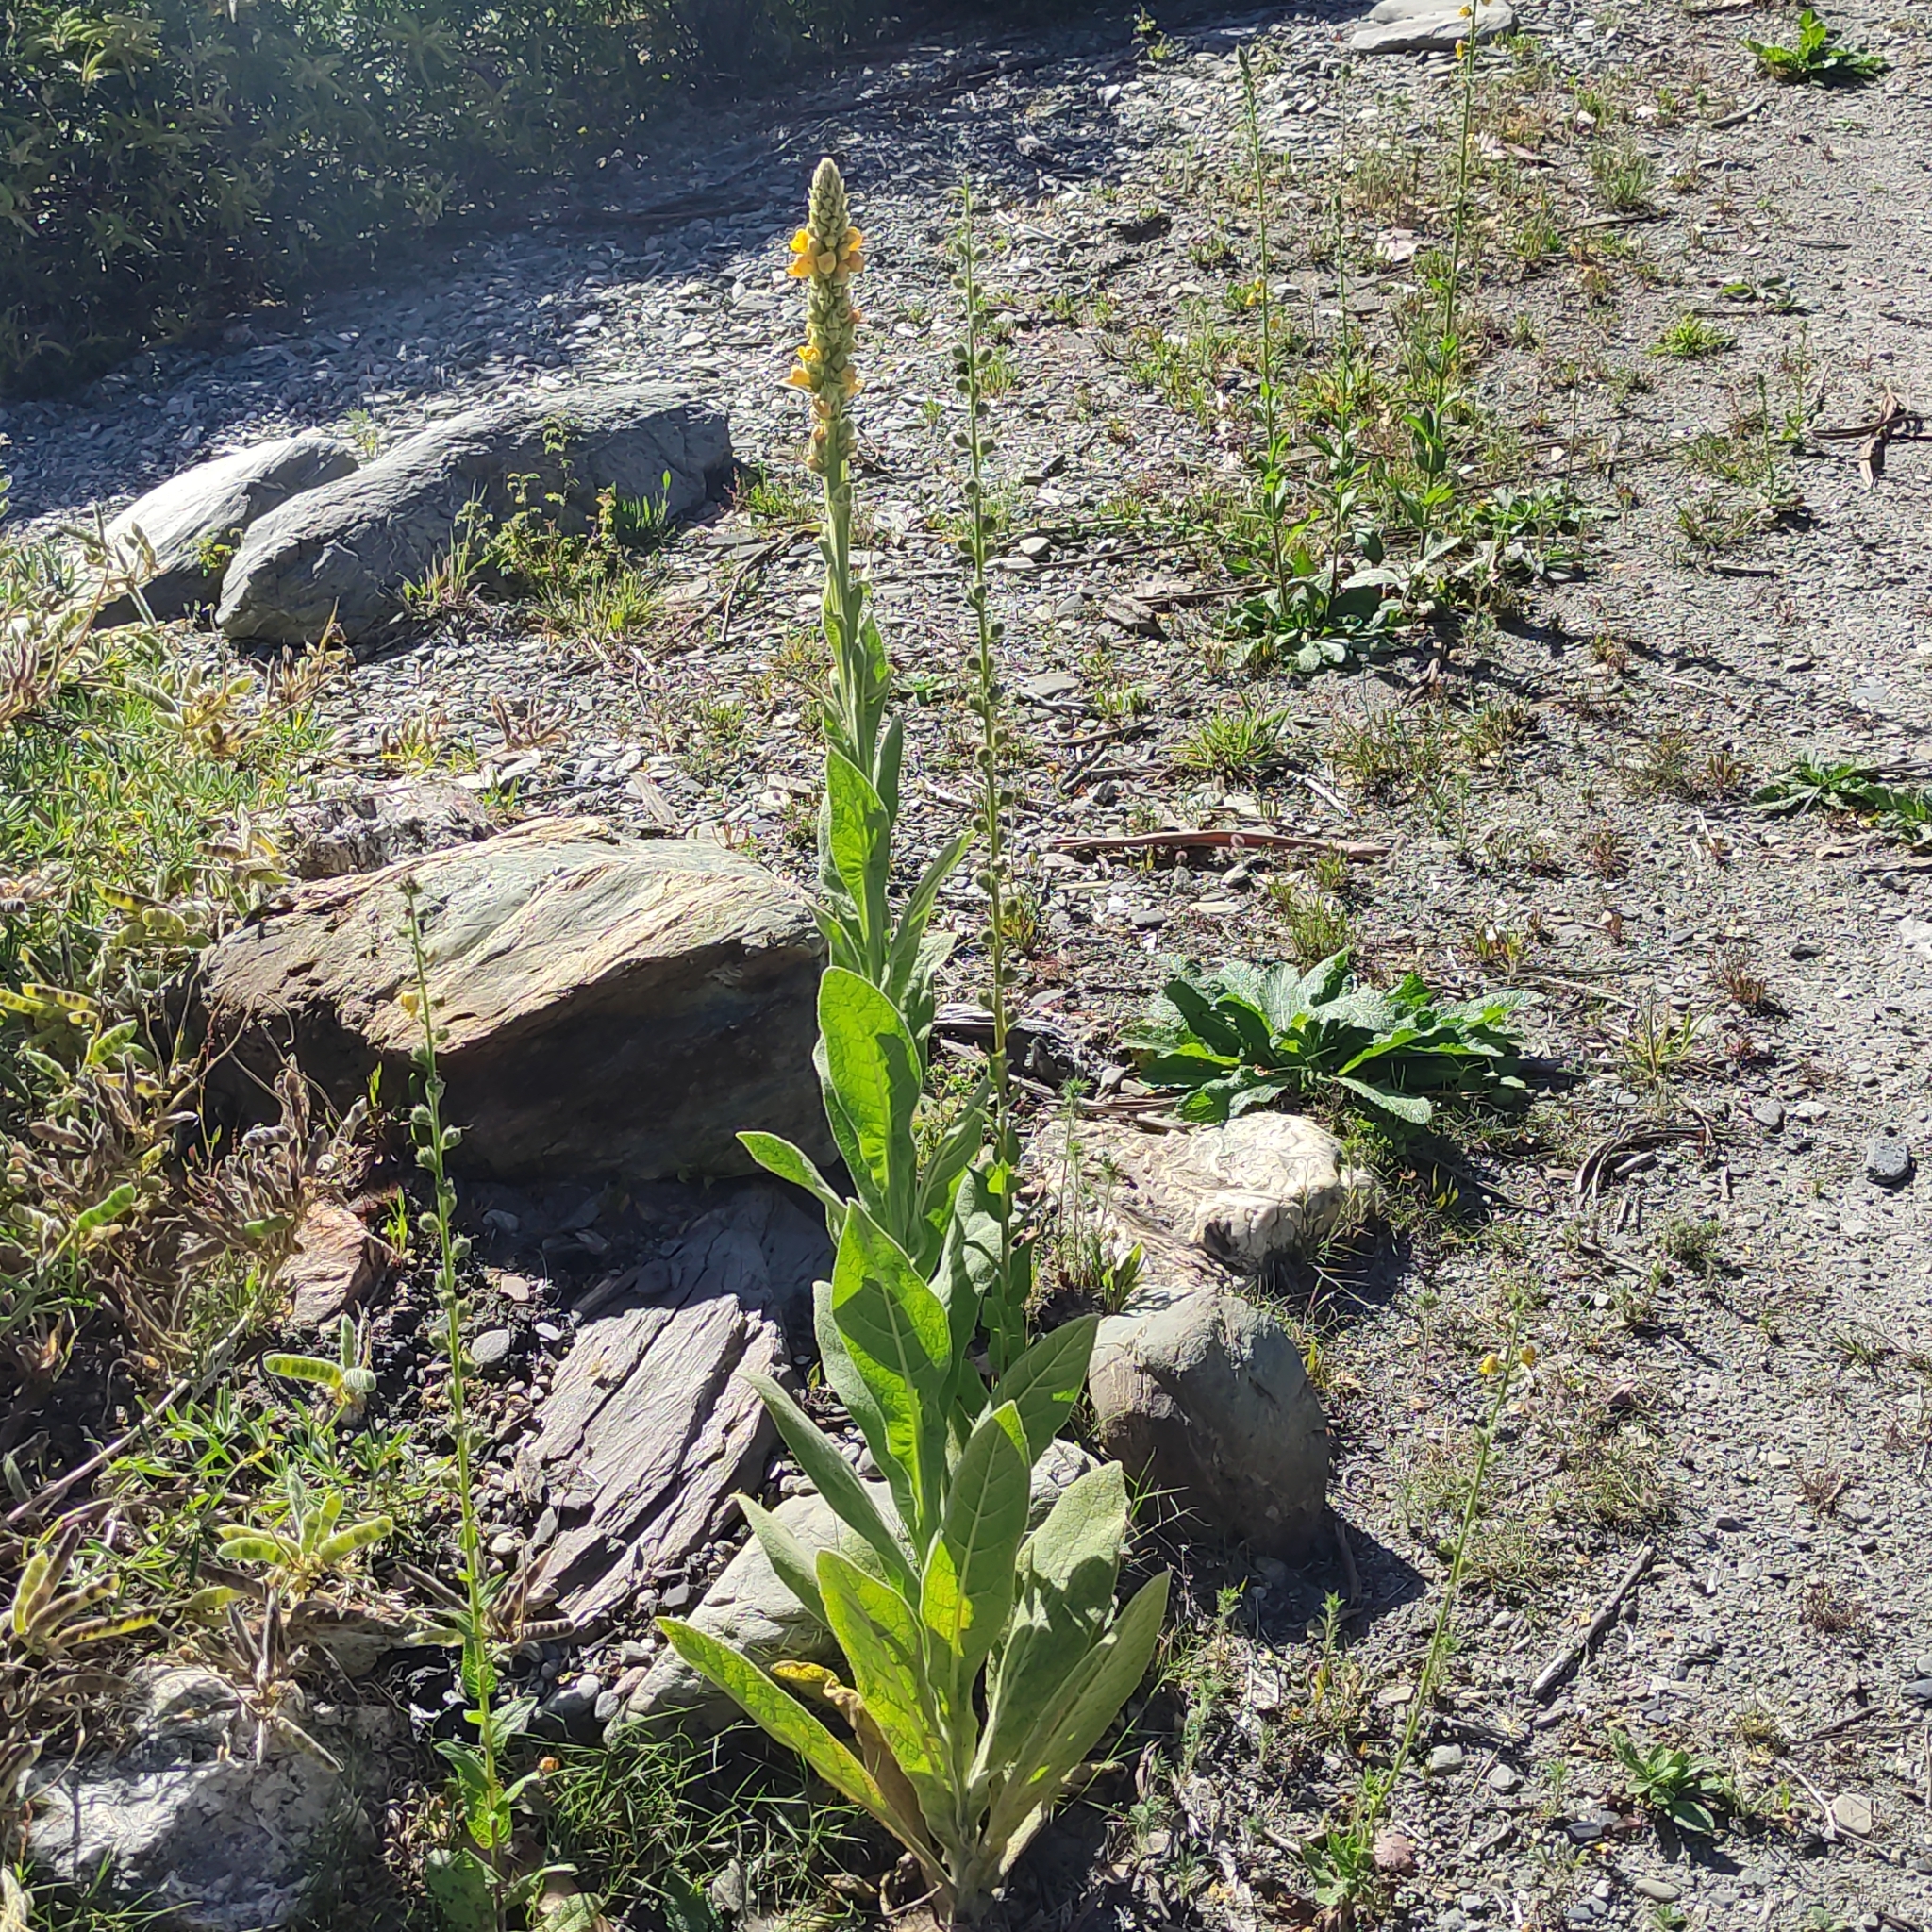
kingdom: Plantae
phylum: Tracheophyta
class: Magnoliopsida
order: Lamiales
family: Scrophulariaceae
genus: Verbascum
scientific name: Verbascum thapsus
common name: Common mullein
